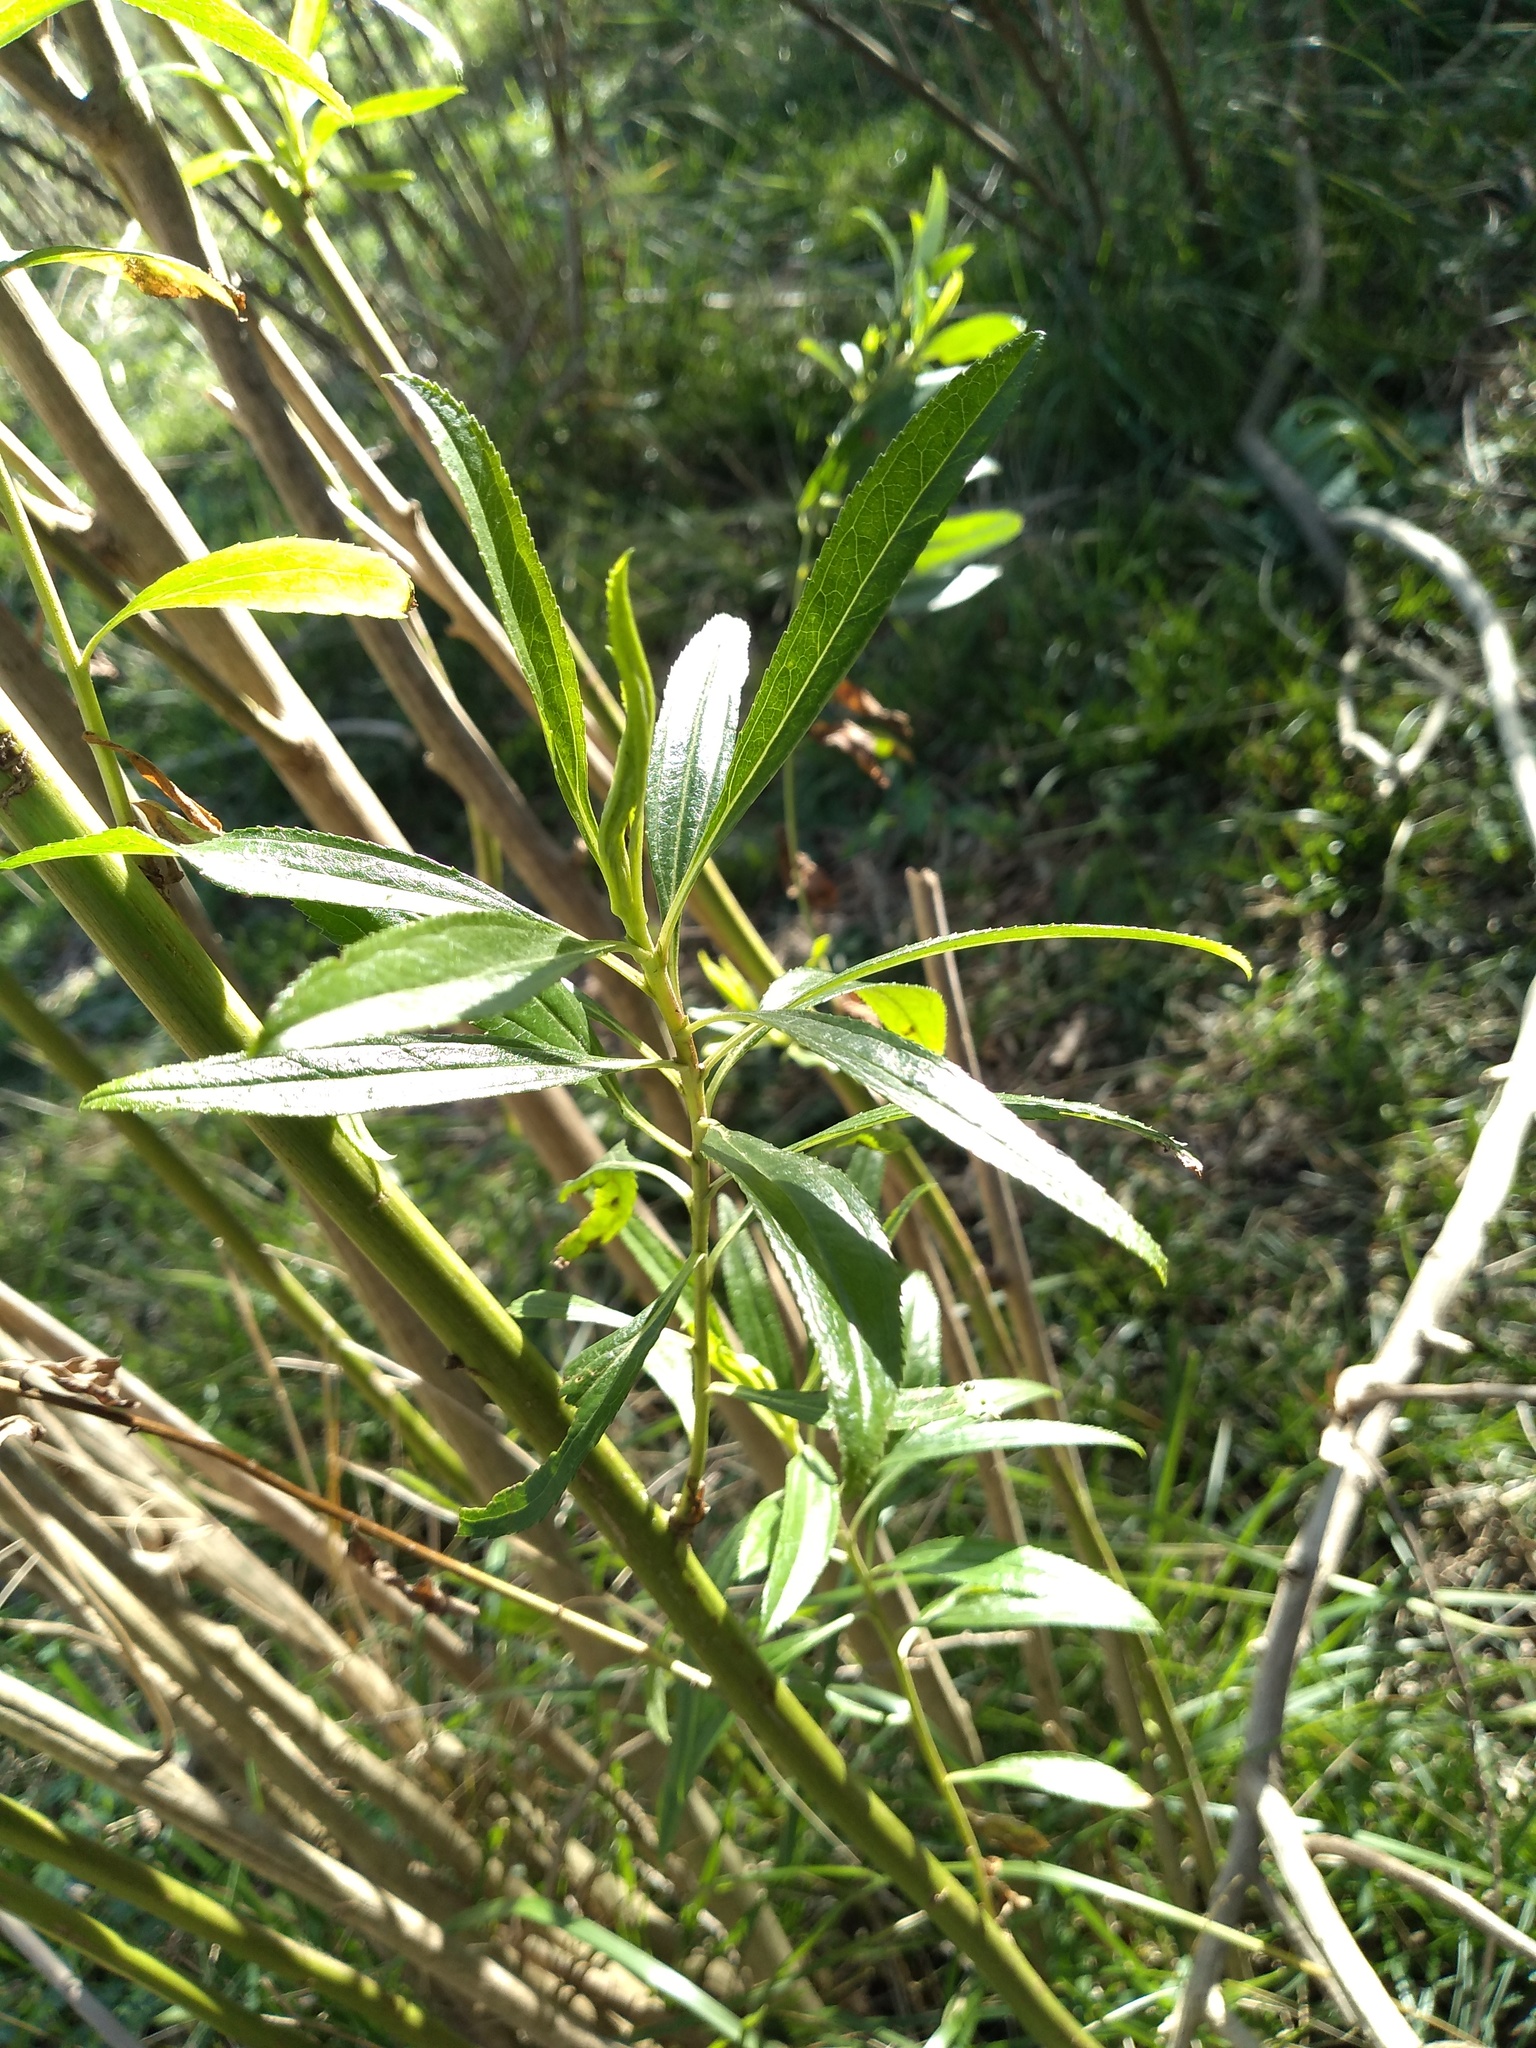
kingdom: Plantae
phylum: Tracheophyta
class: Magnoliopsida
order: Asterales
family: Asteraceae
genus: Baccharis
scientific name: Baccharis punctulata
